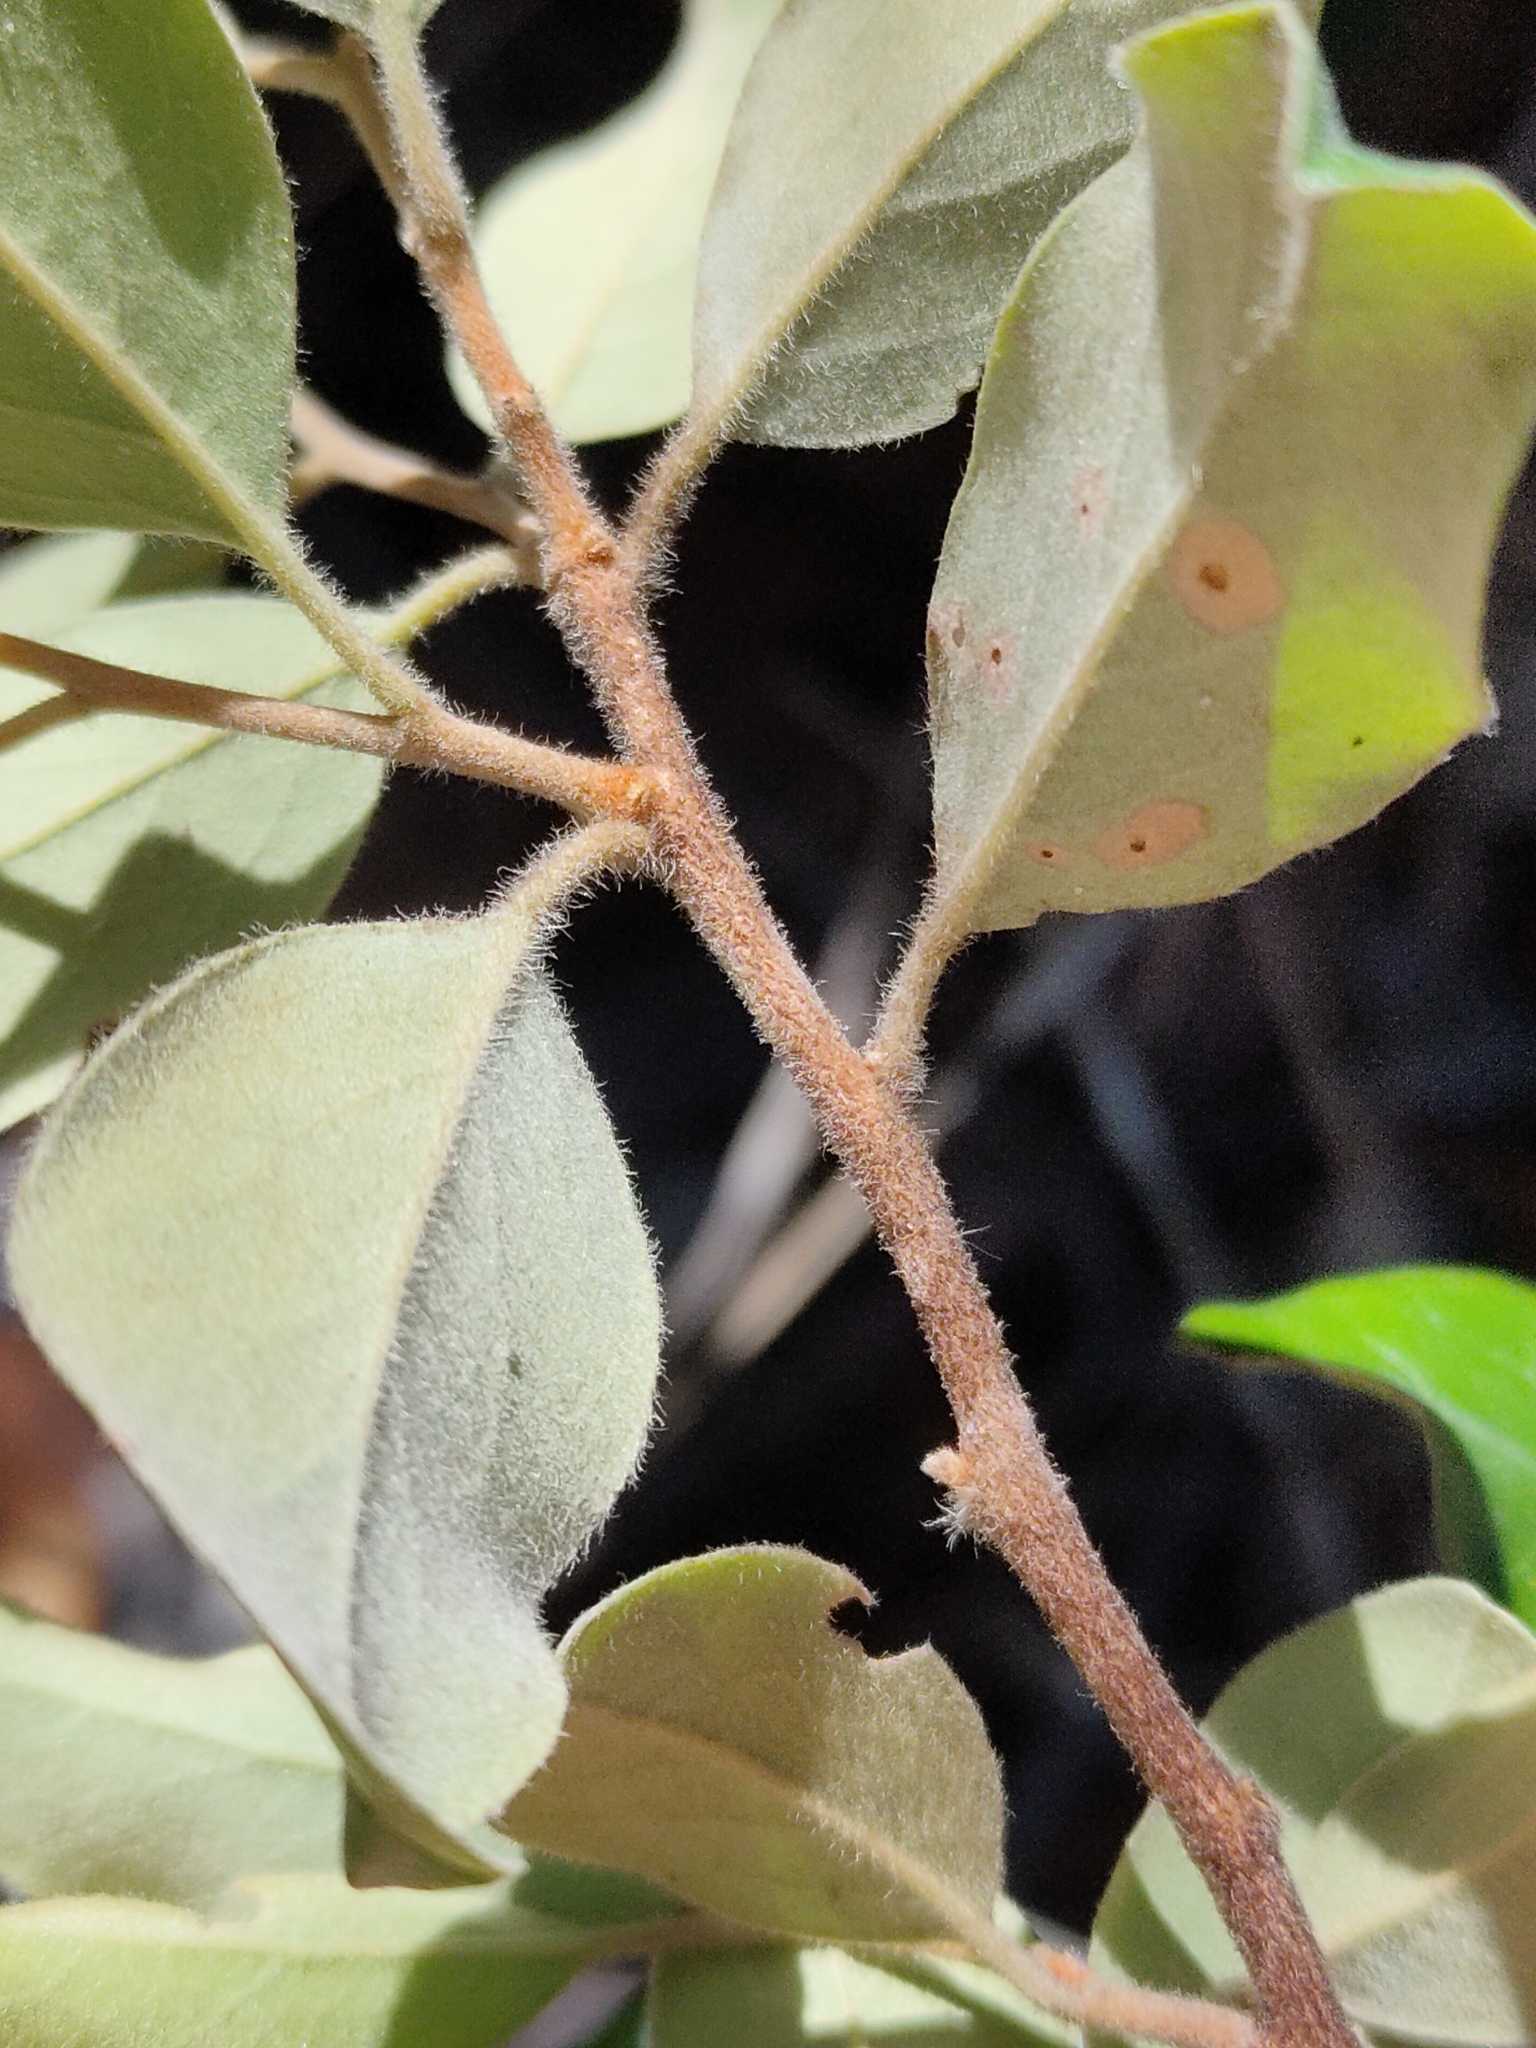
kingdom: Plantae
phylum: Tracheophyta
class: Magnoliopsida
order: Malpighiales
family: Picrodendraceae
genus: Petalostigma
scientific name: Petalostigma pubescens
